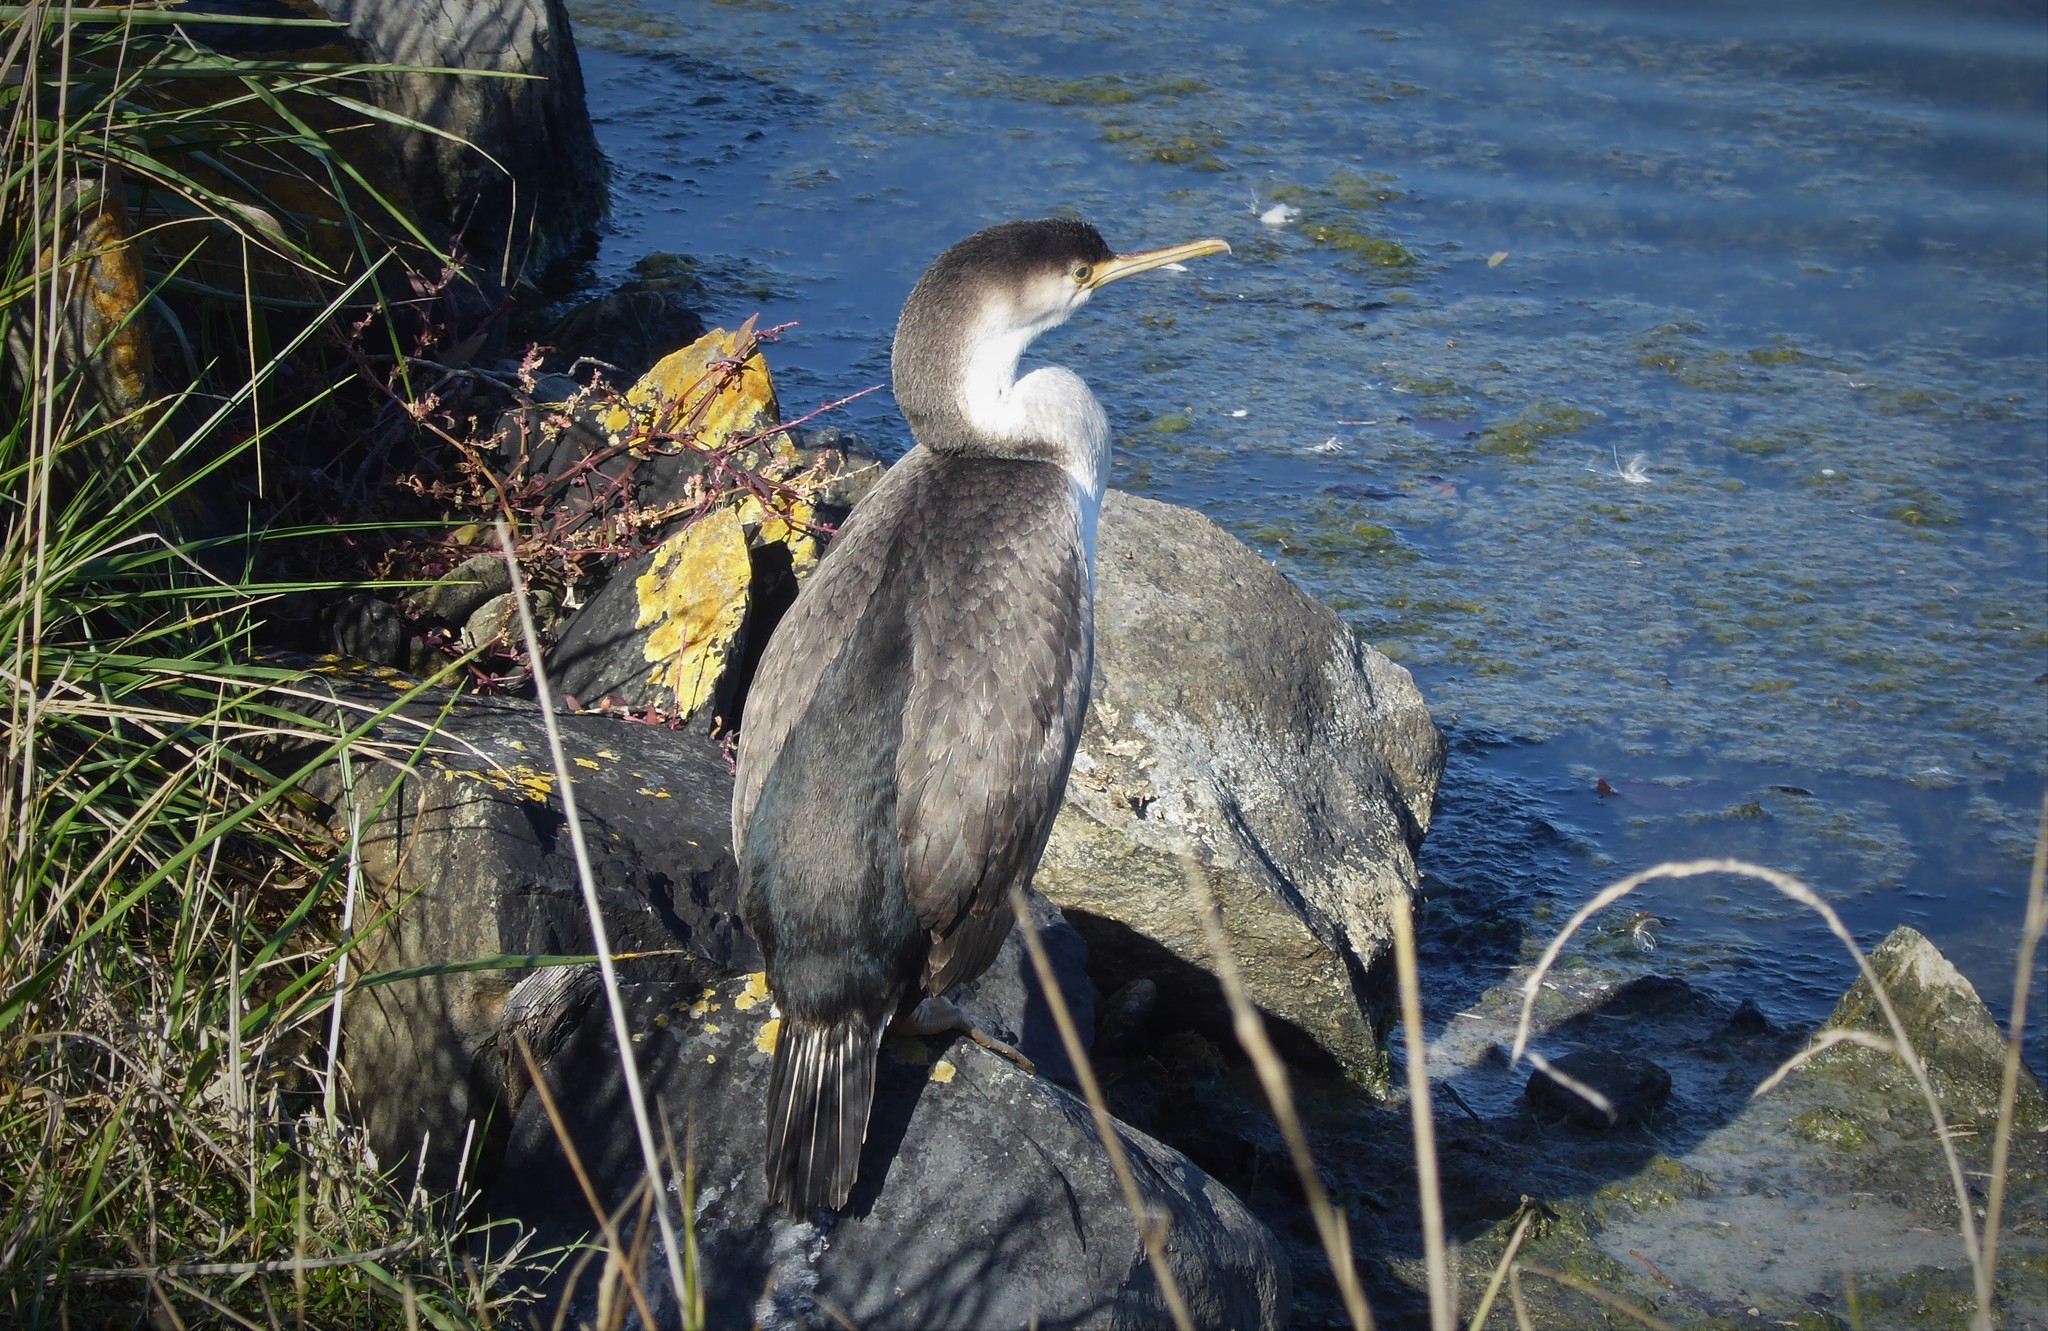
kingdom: Animalia
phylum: Chordata
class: Aves
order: Suliformes
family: Phalacrocoracidae
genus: Phalacrocorax
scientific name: Phalacrocorax punctatus
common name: Spotted shag
